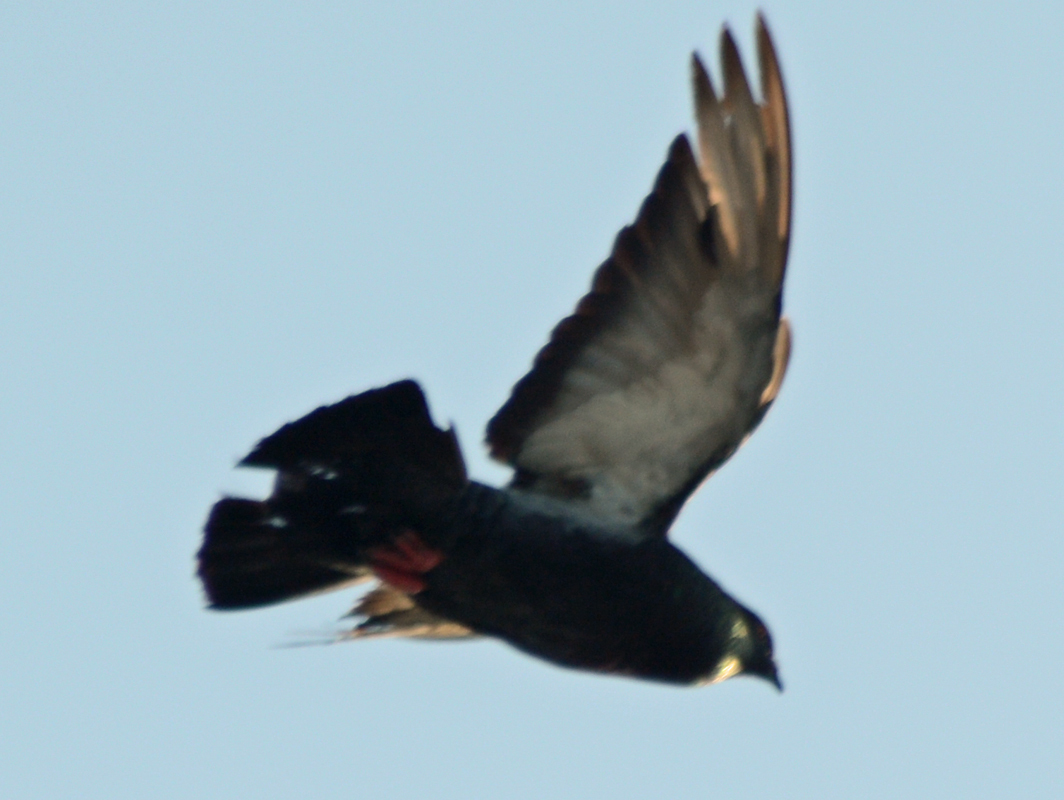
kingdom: Animalia
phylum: Chordata
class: Aves
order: Columbiformes
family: Columbidae
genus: Columba
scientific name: Columba livia
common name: Rock pigeon
